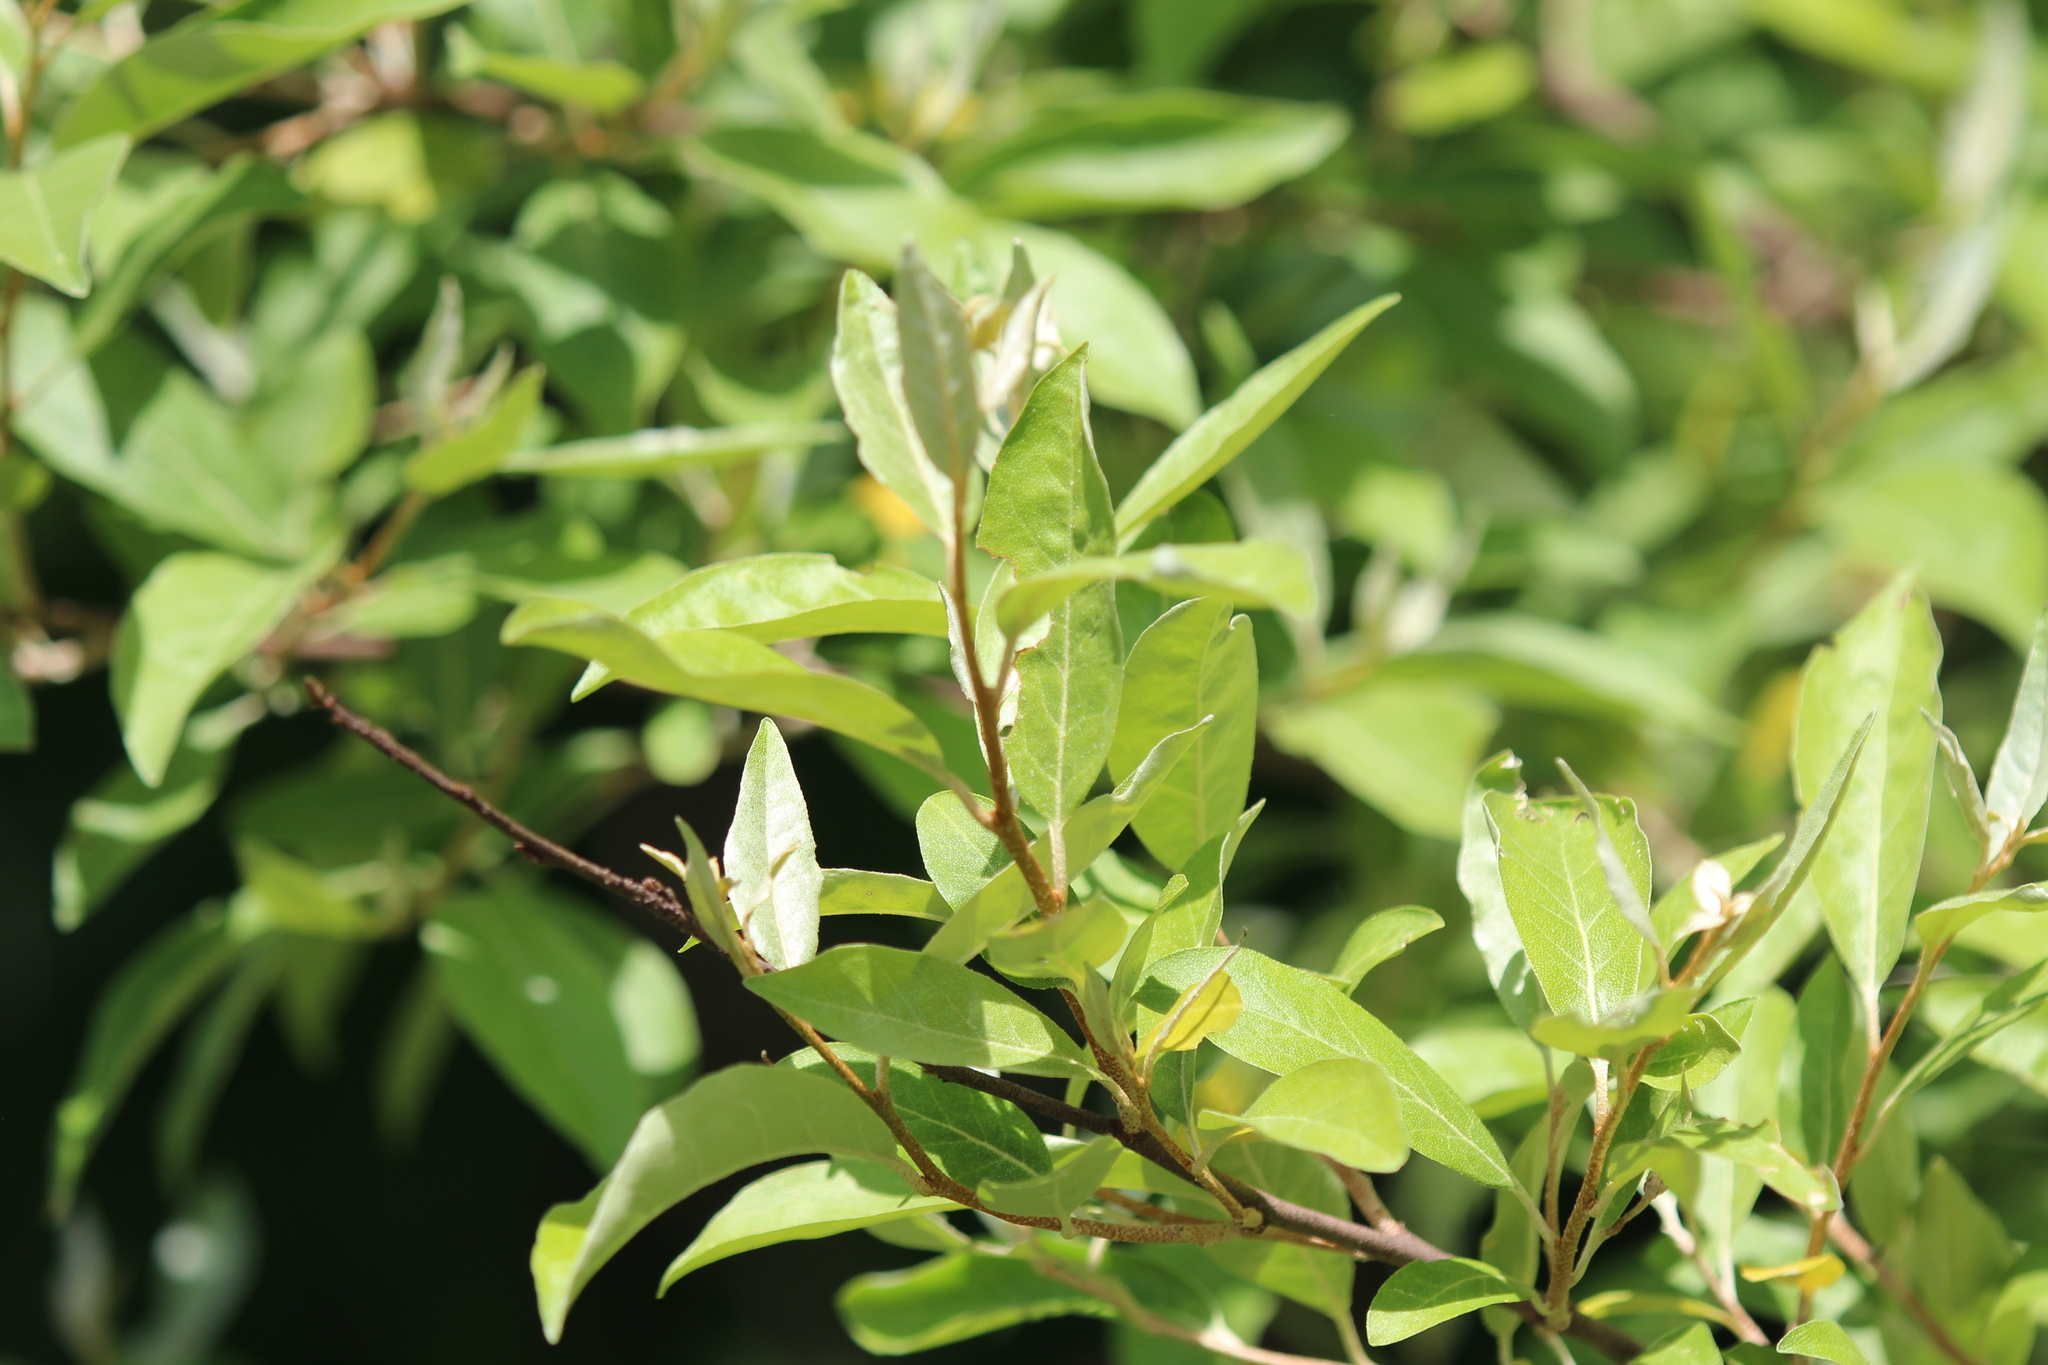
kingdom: Plantae
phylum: Tracheophyta
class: Magnoliopsida
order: Rosales
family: Elaeagnaceae
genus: Elaeagnus
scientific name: Elaeagnus umbellata
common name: Autumn olive
